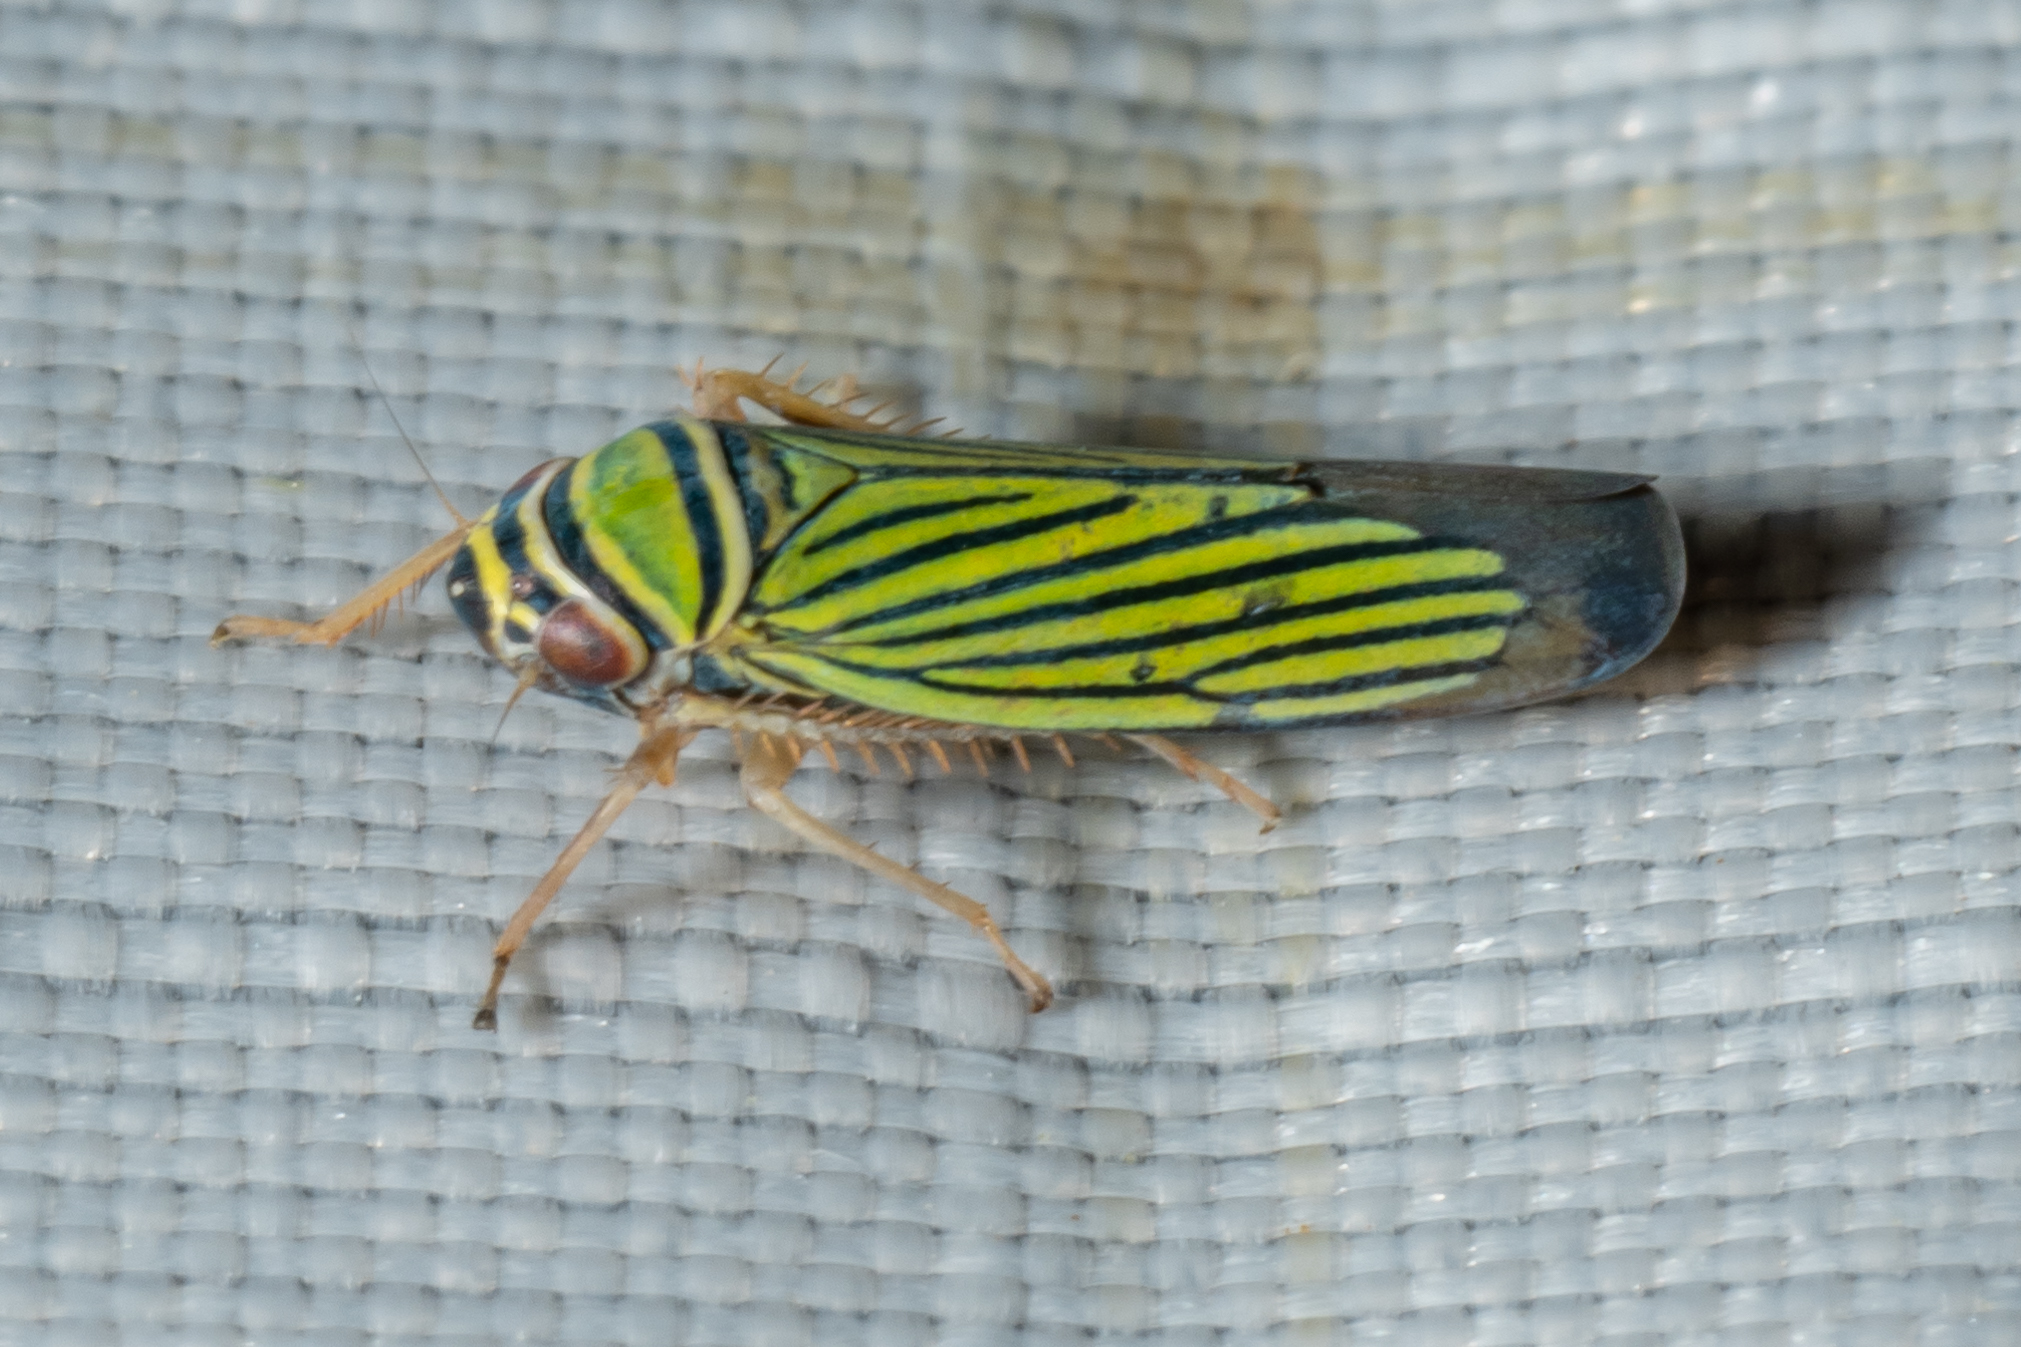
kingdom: Animalia
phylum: Arthropoda
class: Insecta
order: Hemiptera
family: Cicadellidae
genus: Tylozygus
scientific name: Tylozygus bifidus
